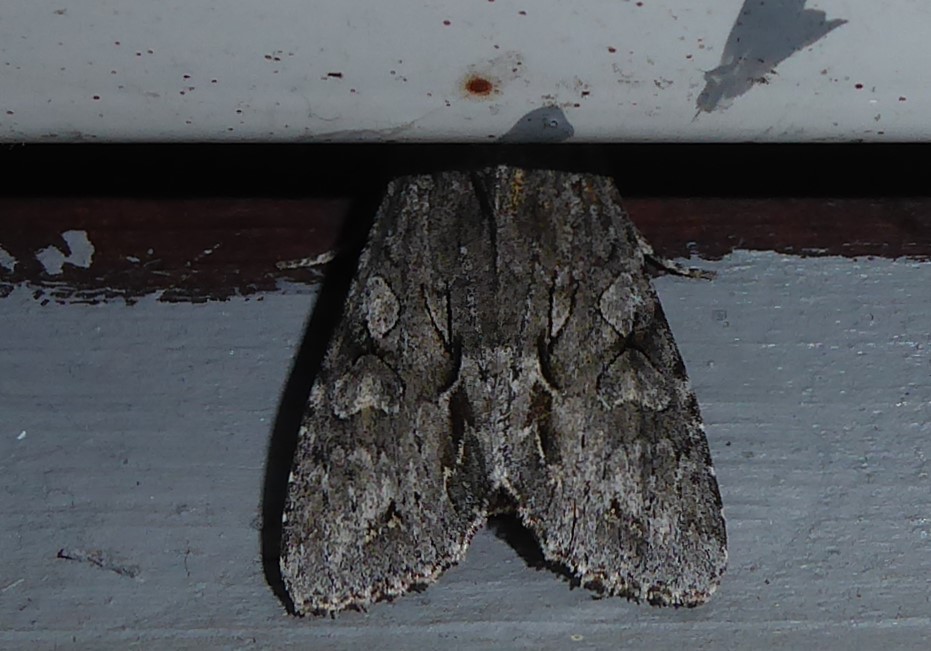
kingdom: Animalia
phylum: Arthropoda
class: Insecta
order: Lepidoptera
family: Noctuidae
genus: Ichneutica
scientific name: Ichneutica
